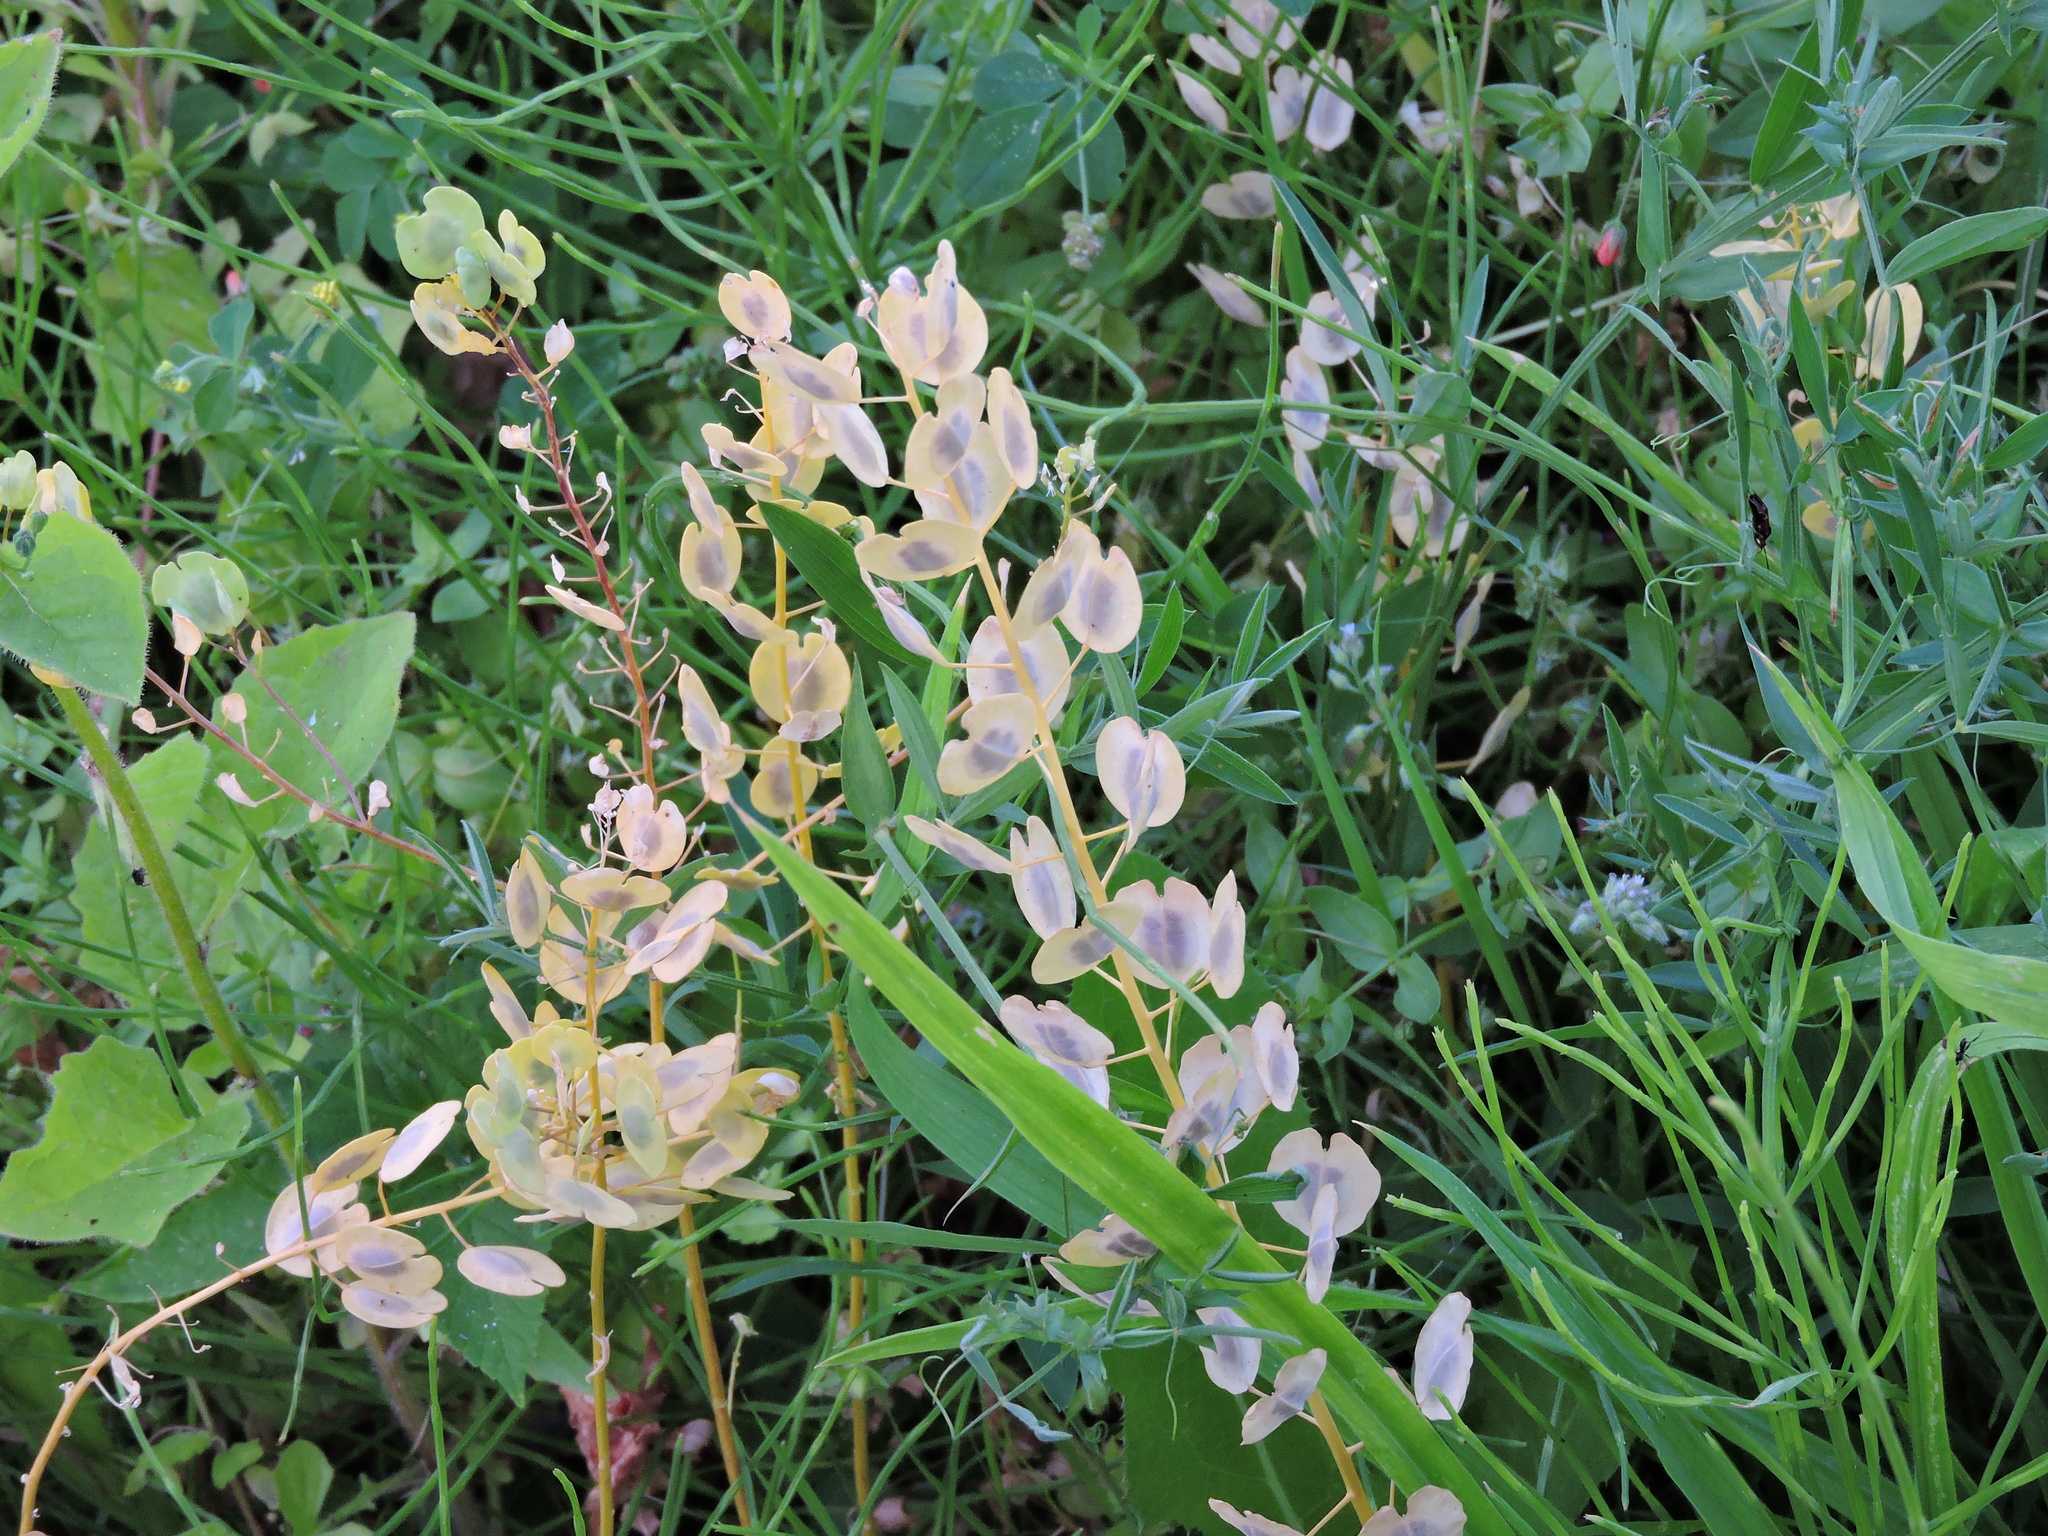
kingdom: Plantae
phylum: Tracheophyta
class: Magnoliopsida
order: Brassicales
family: Brassicaceae
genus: Thlaspi
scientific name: Thlaspi arvense
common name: Field pennycress
